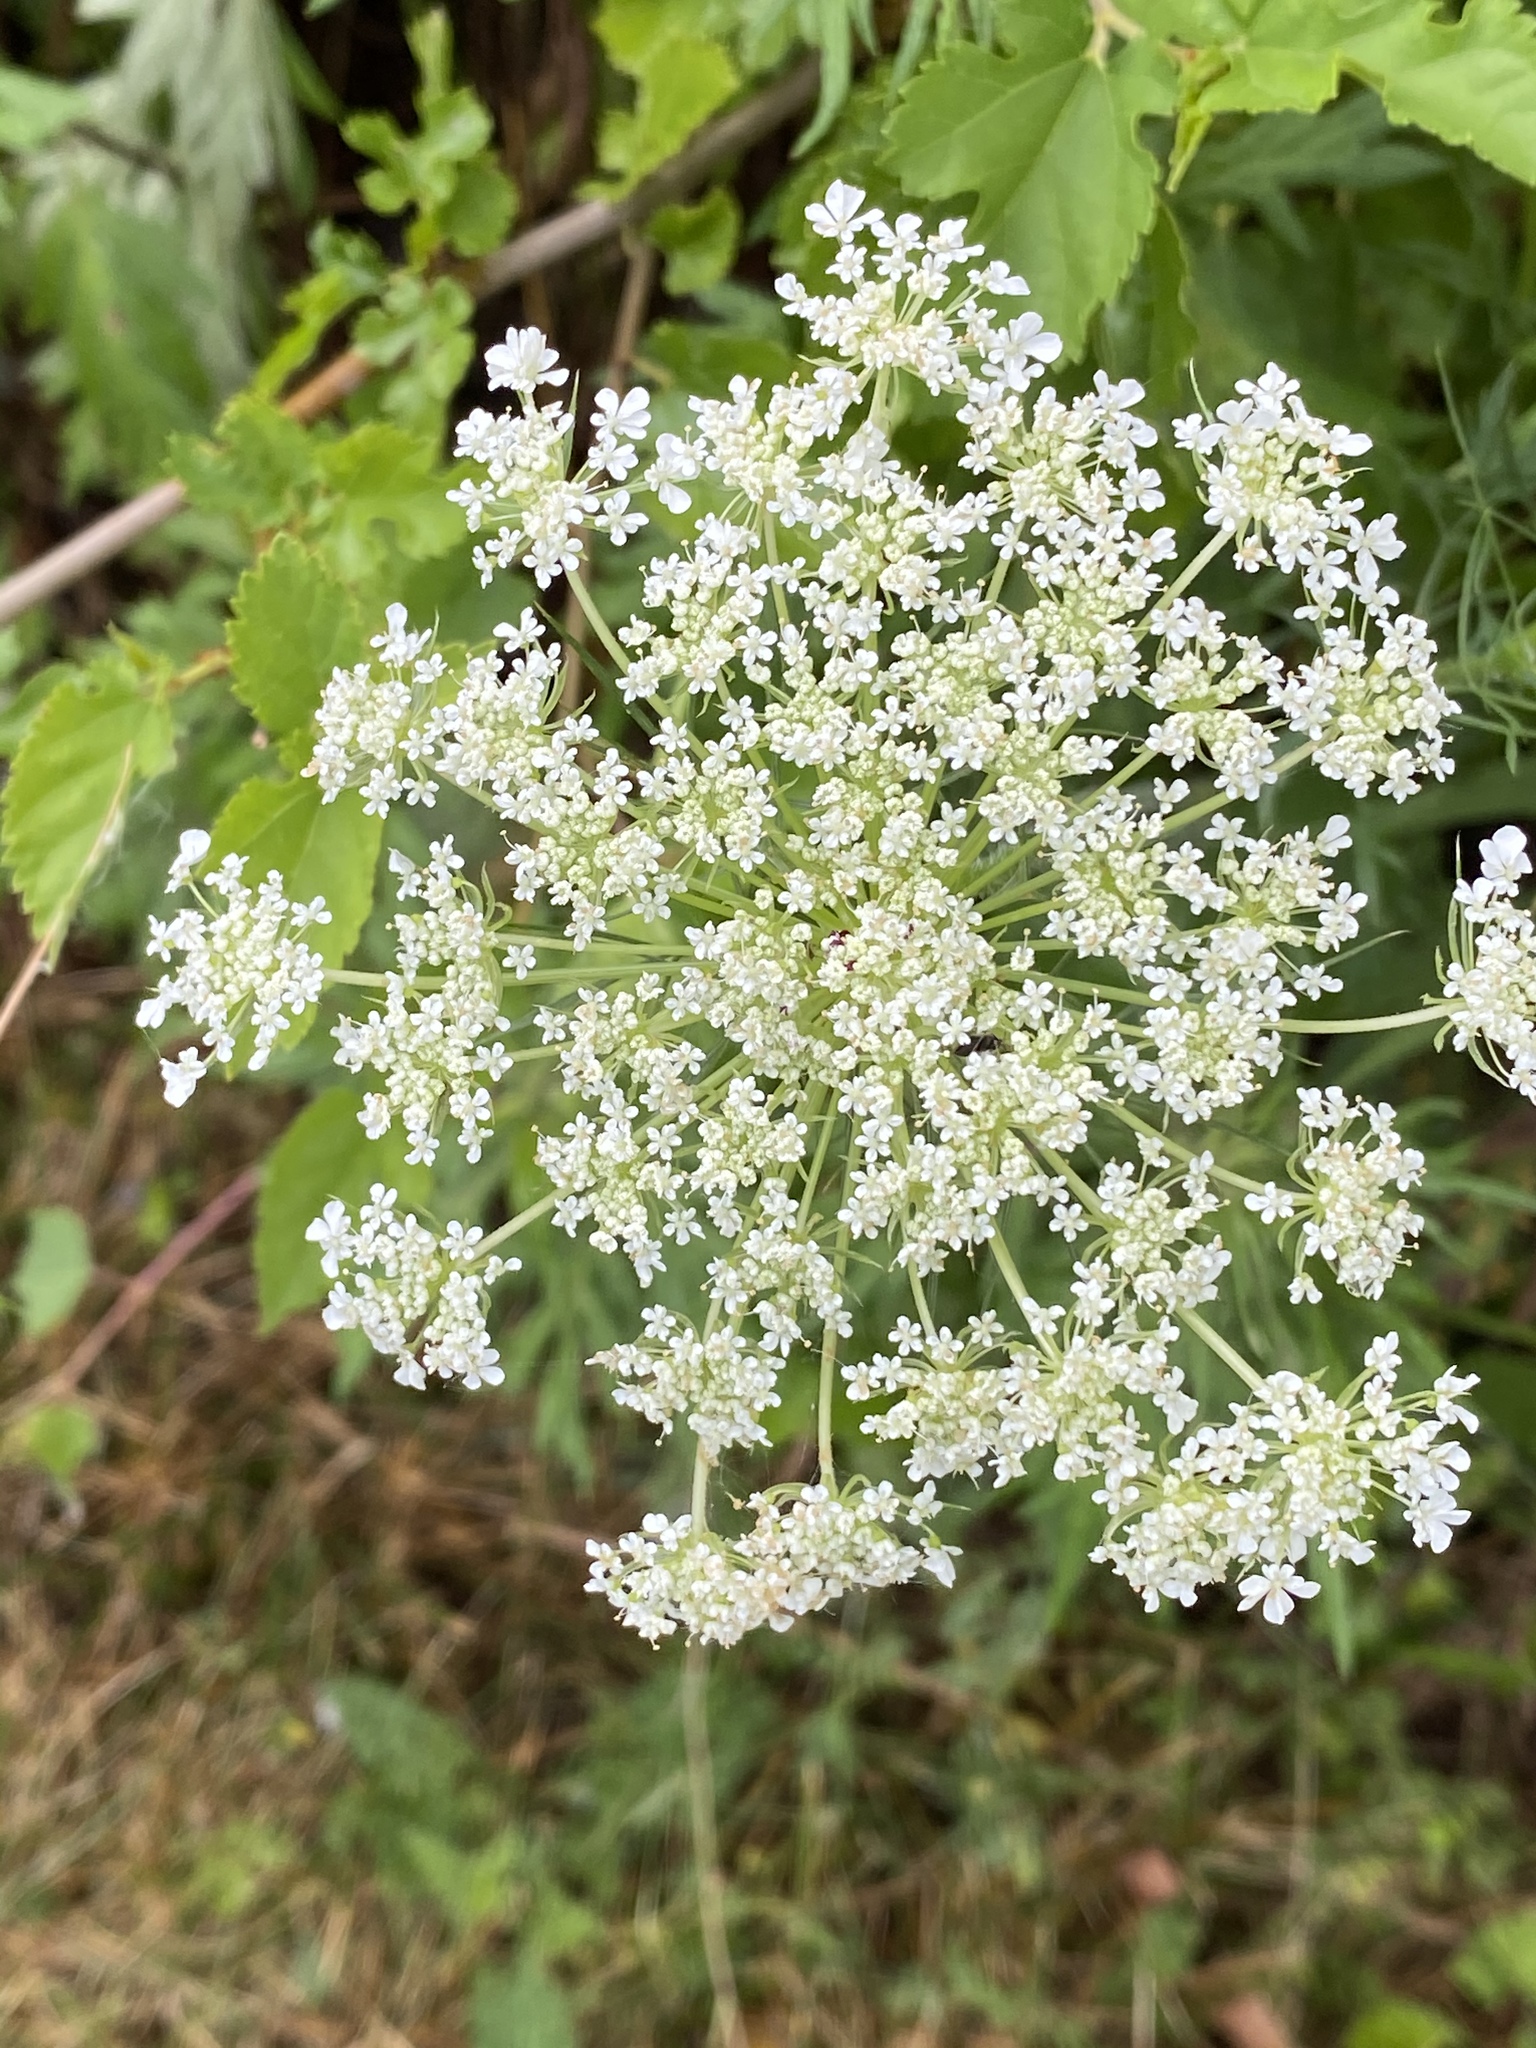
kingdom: Plantae
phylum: Tracheophyta
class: Magnoliopsida
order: Apiales
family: Apiaceae
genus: Daucus
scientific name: Daucus carota
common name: Wild carrot
